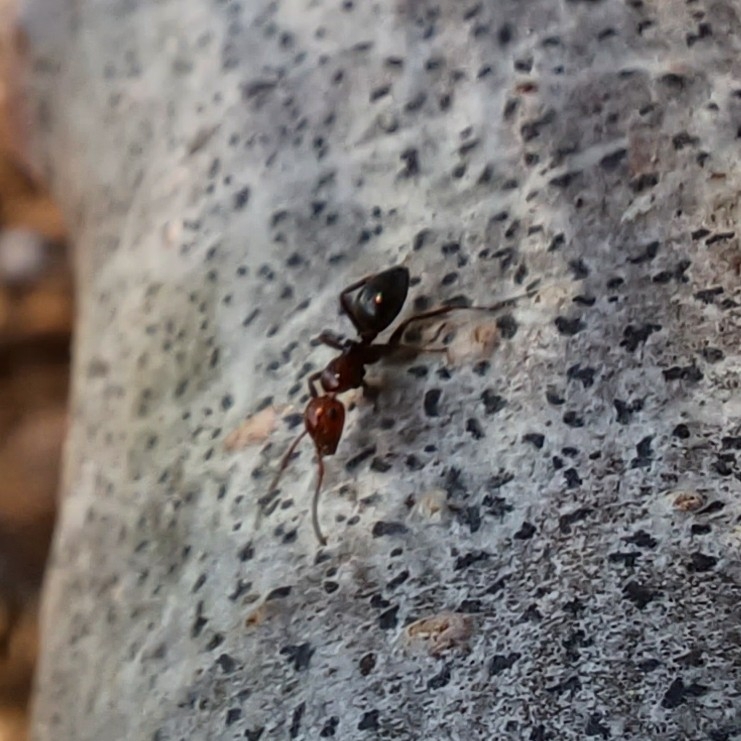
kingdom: Animalia
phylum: Arthropoda
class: Insecta
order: Hymenoptera
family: Formicidae
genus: Camponotus
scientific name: Camponotus lateralis
